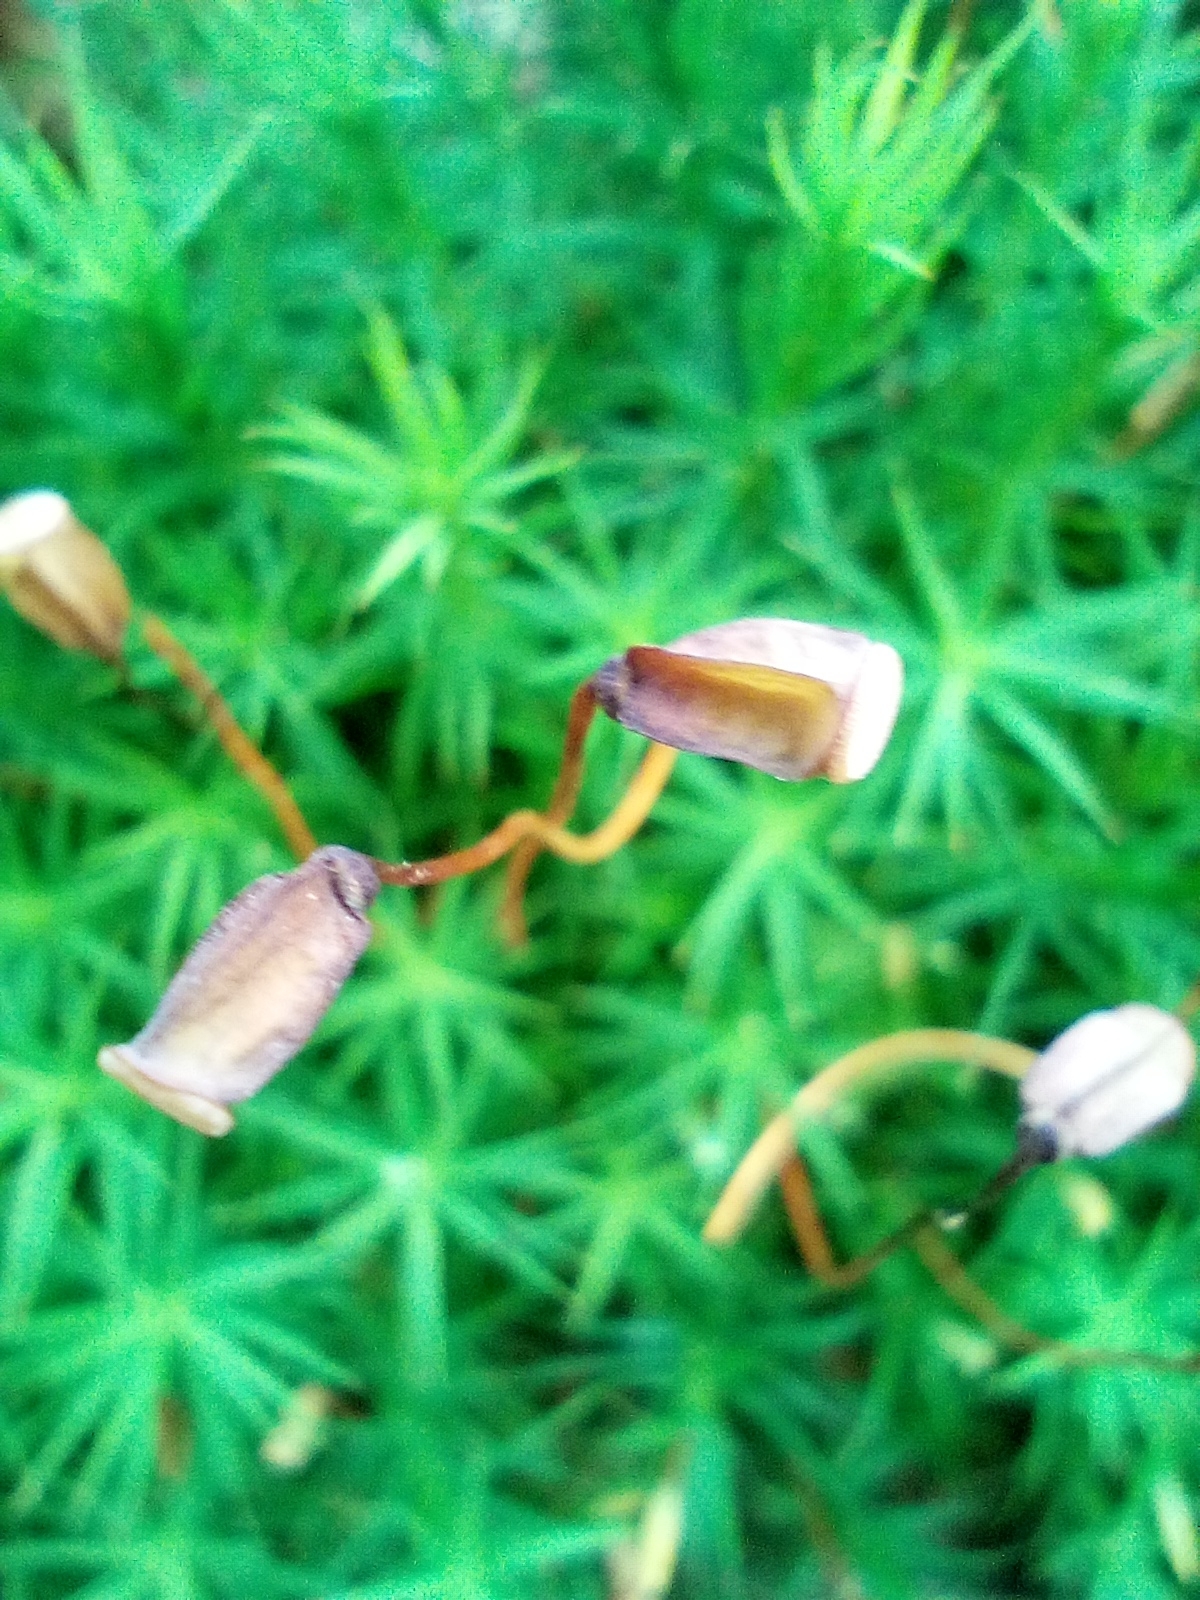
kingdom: Plantae
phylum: Bryophyta
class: Polytrichopsida
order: Polytrichales
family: Polytrichaceae
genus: Polytrichum
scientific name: Polytrichum formosum
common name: Bank haircap moss
